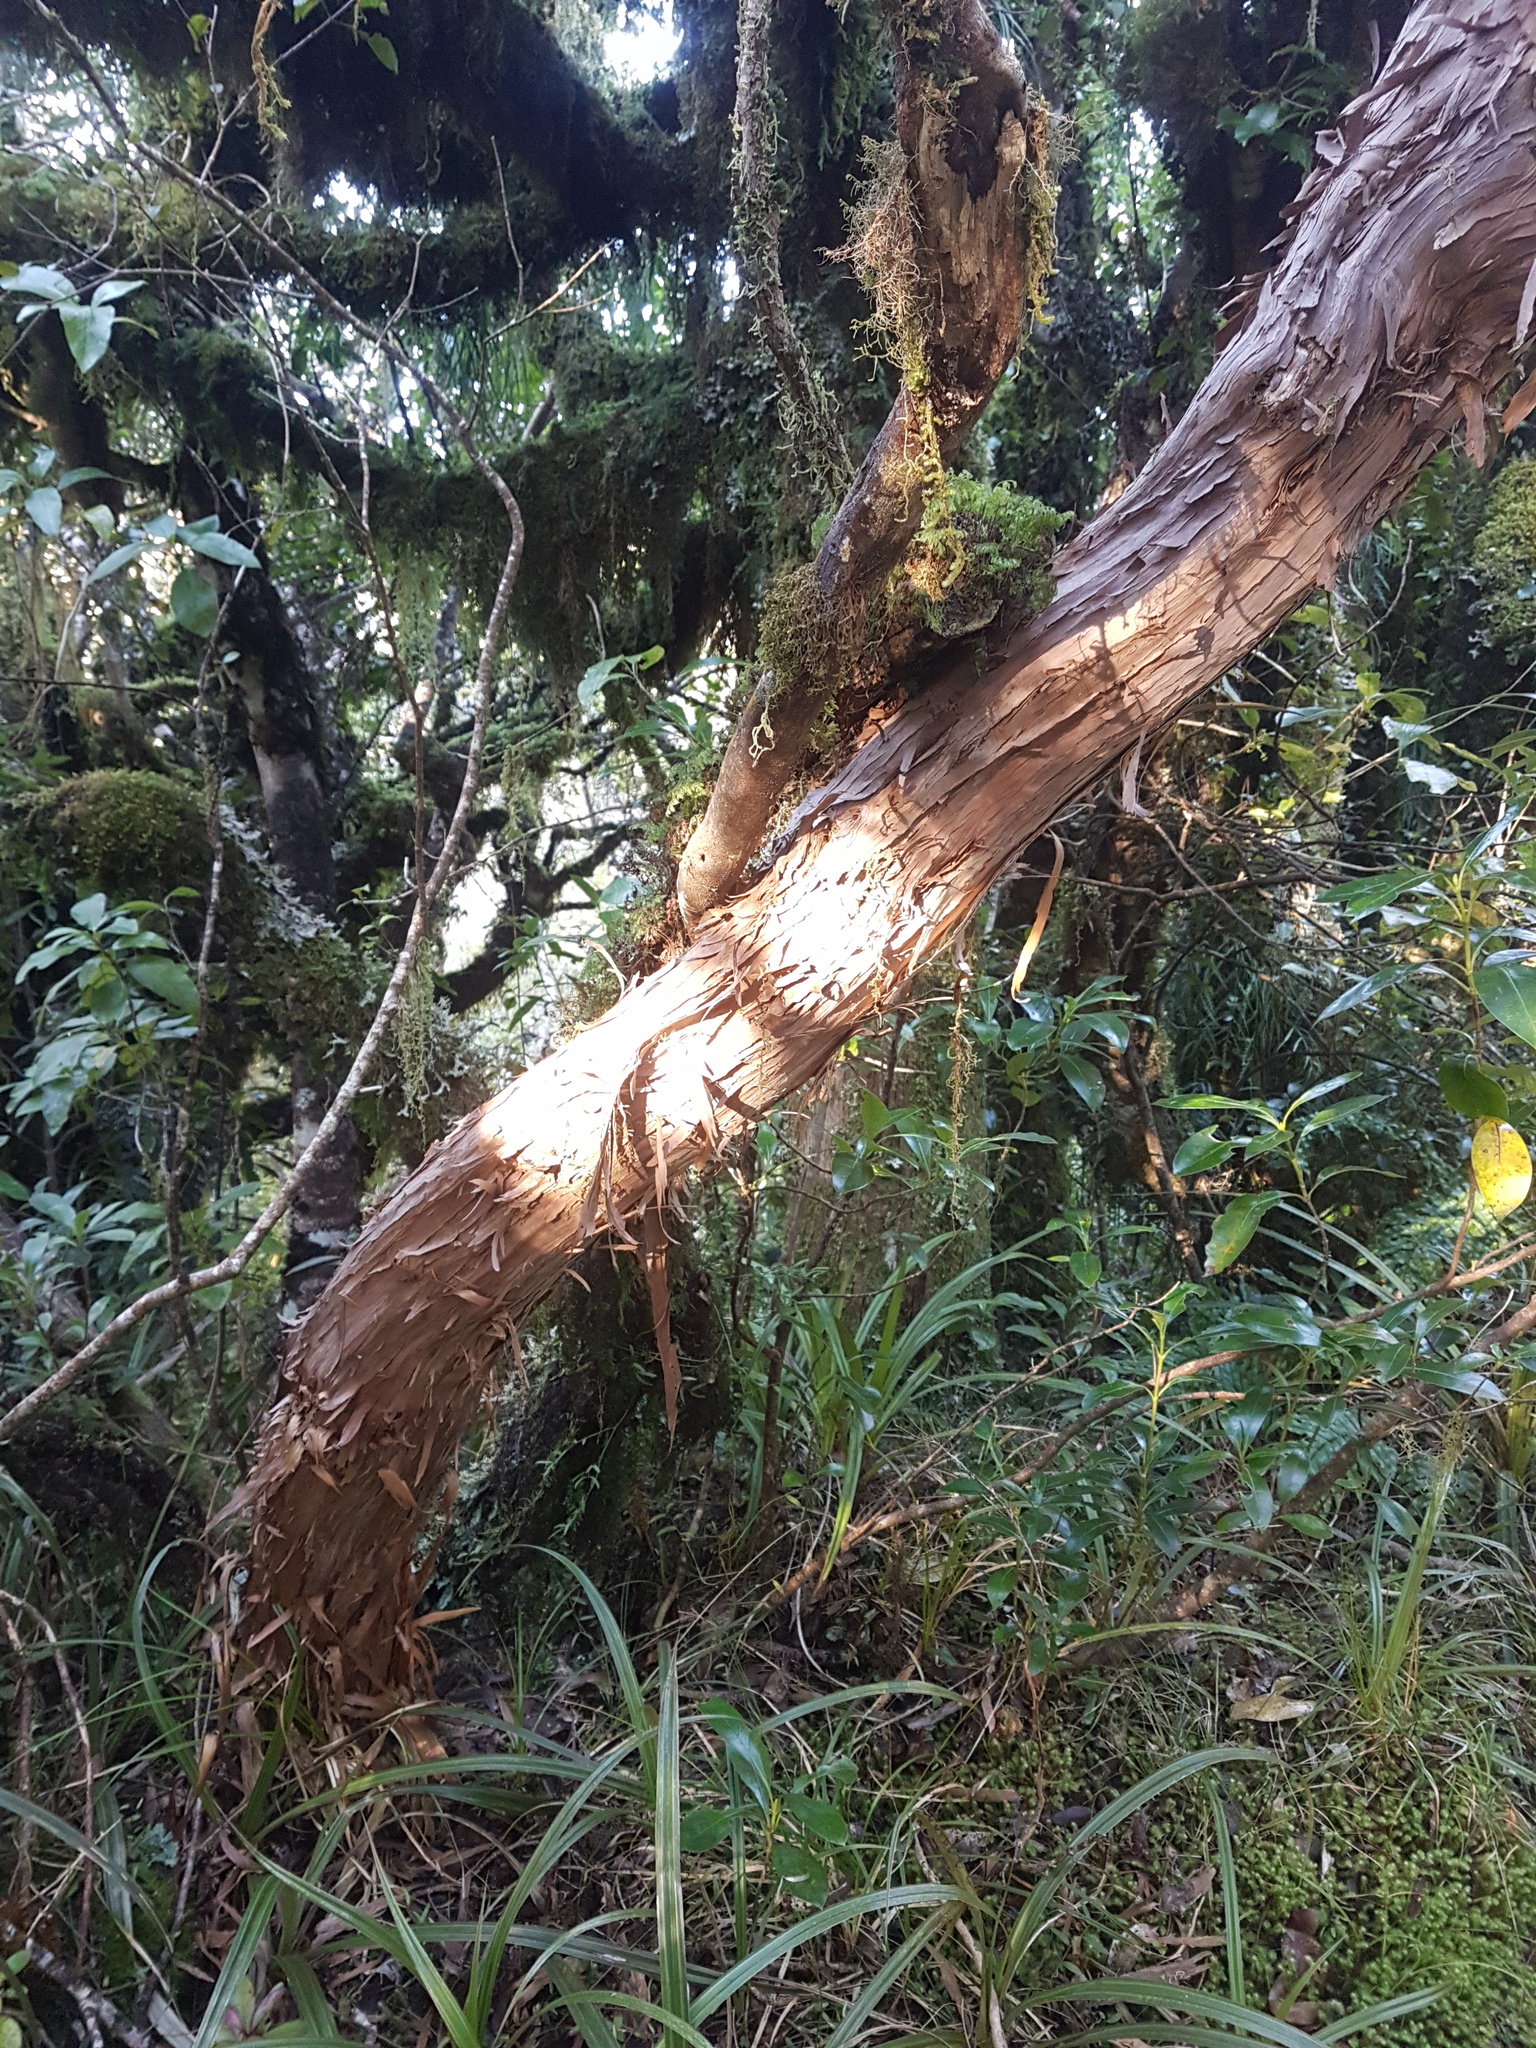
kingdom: Plantae
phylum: Tracheophyta
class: Magnoliopsida
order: Asterales
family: Asteraceae
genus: Olearia
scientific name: Olearia ilicifolia
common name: Maori-holly
